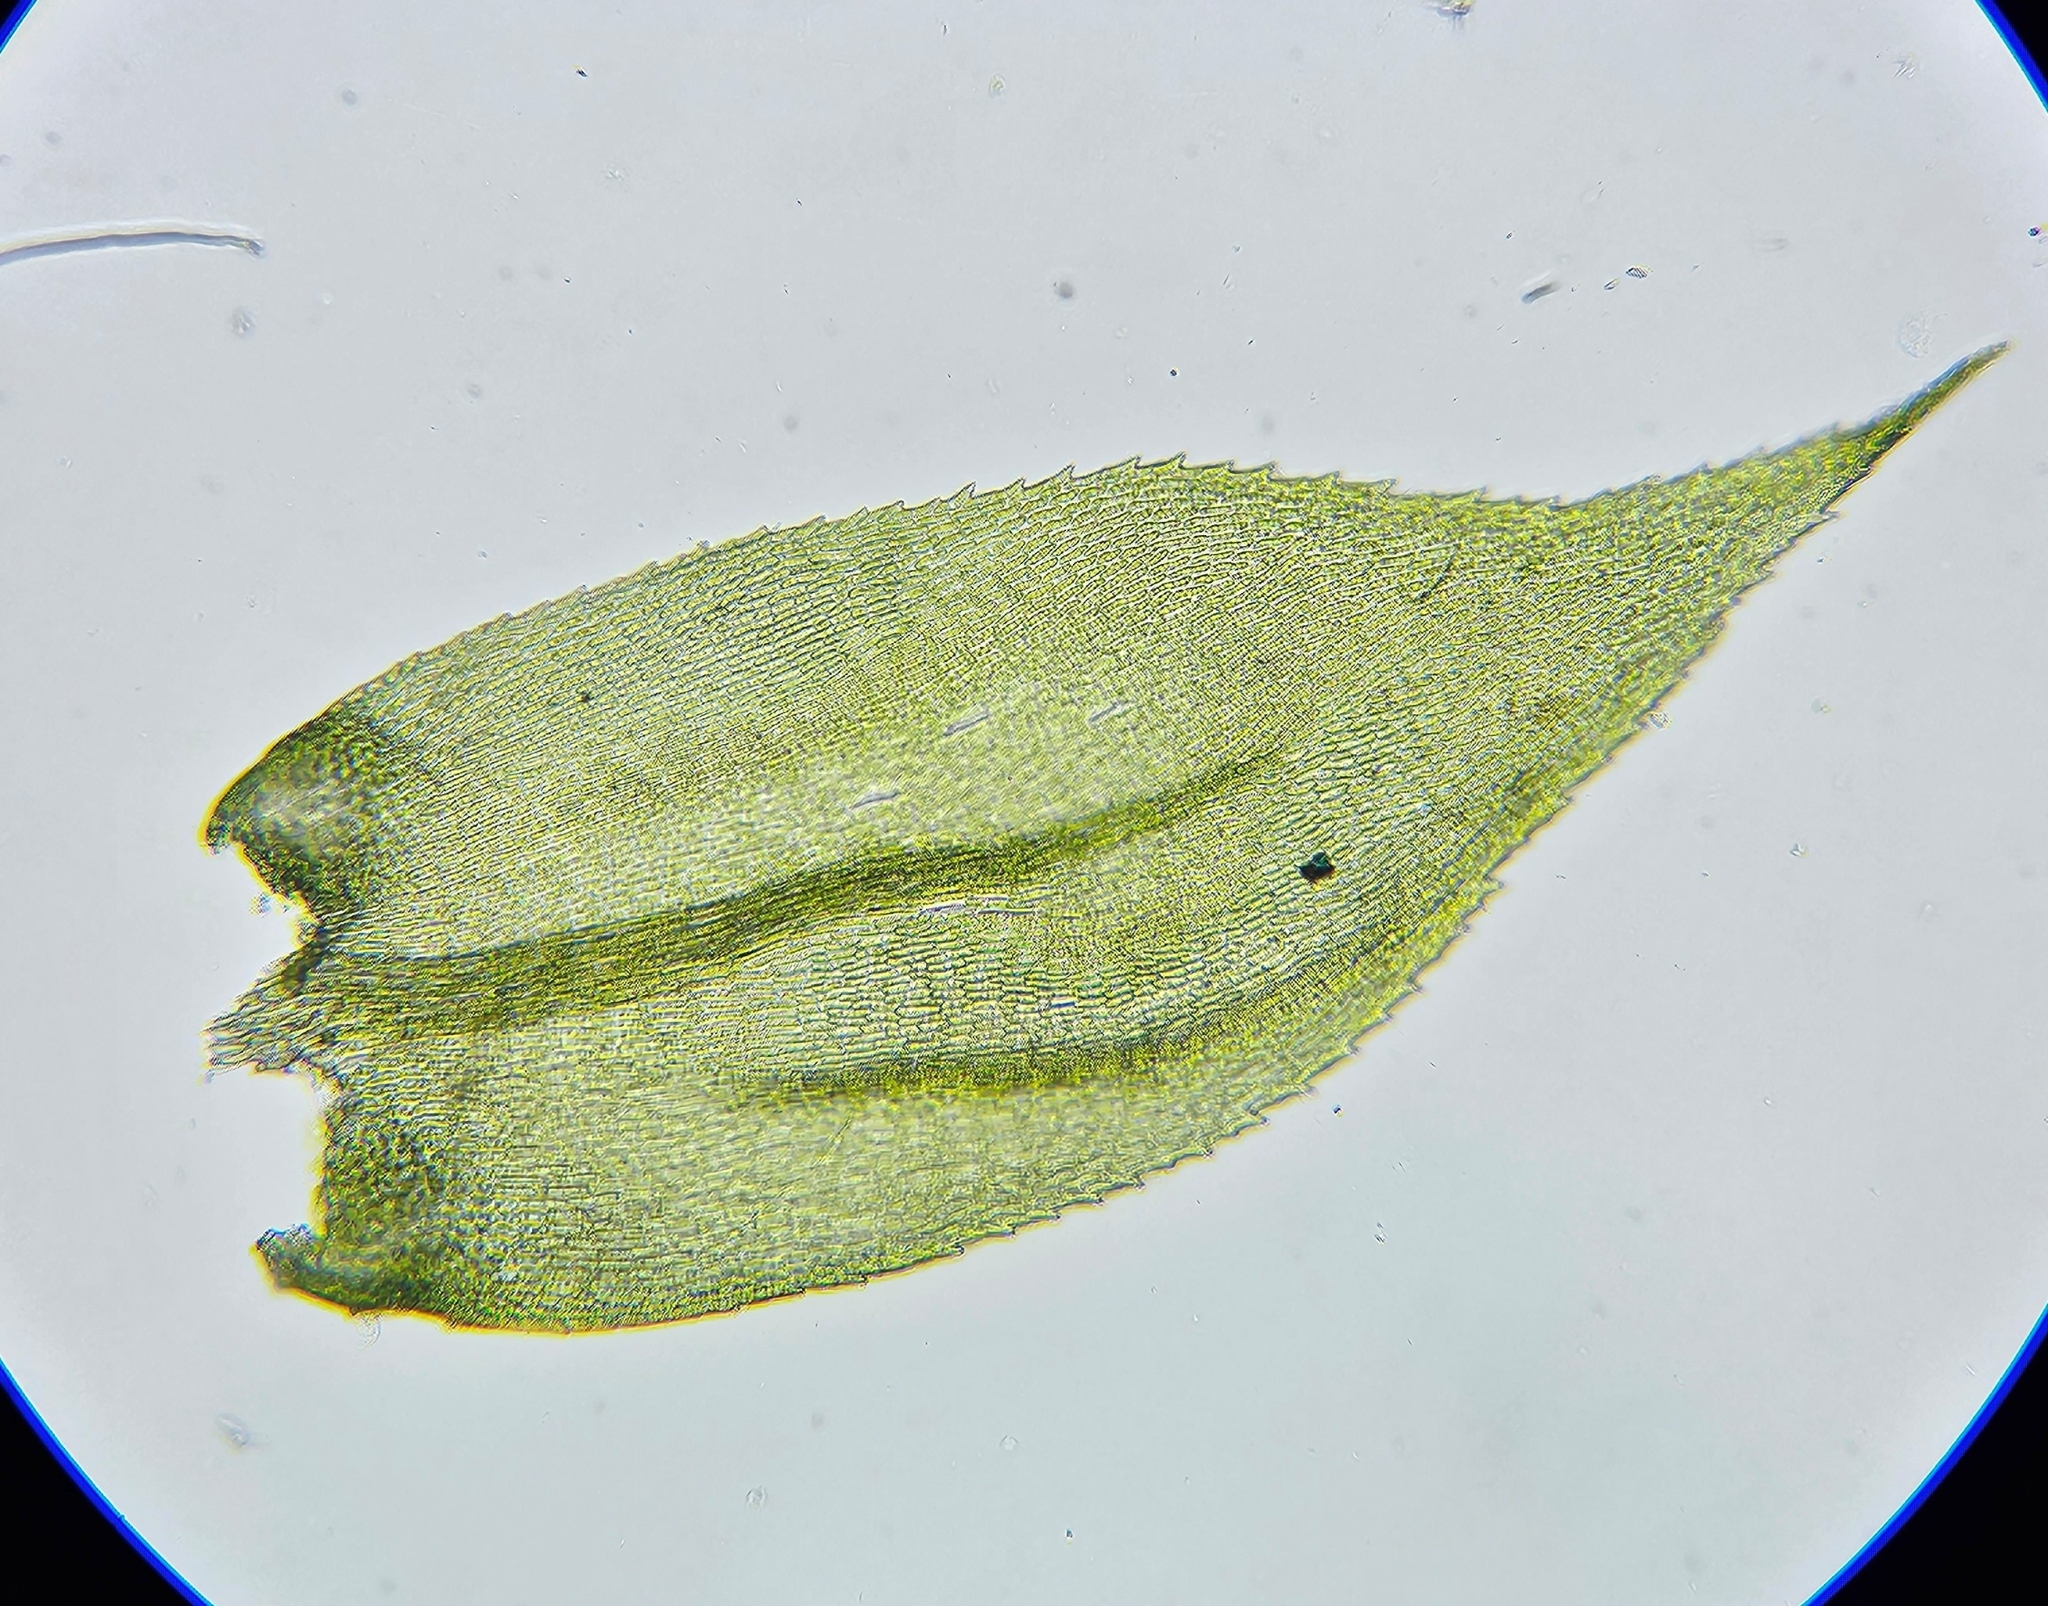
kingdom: Plantae
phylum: Bryophyta
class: Bryopsida
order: Hypnales
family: Lembophyllaceae
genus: Pseudisothecium
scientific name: Pseudisothecium myosuroides
